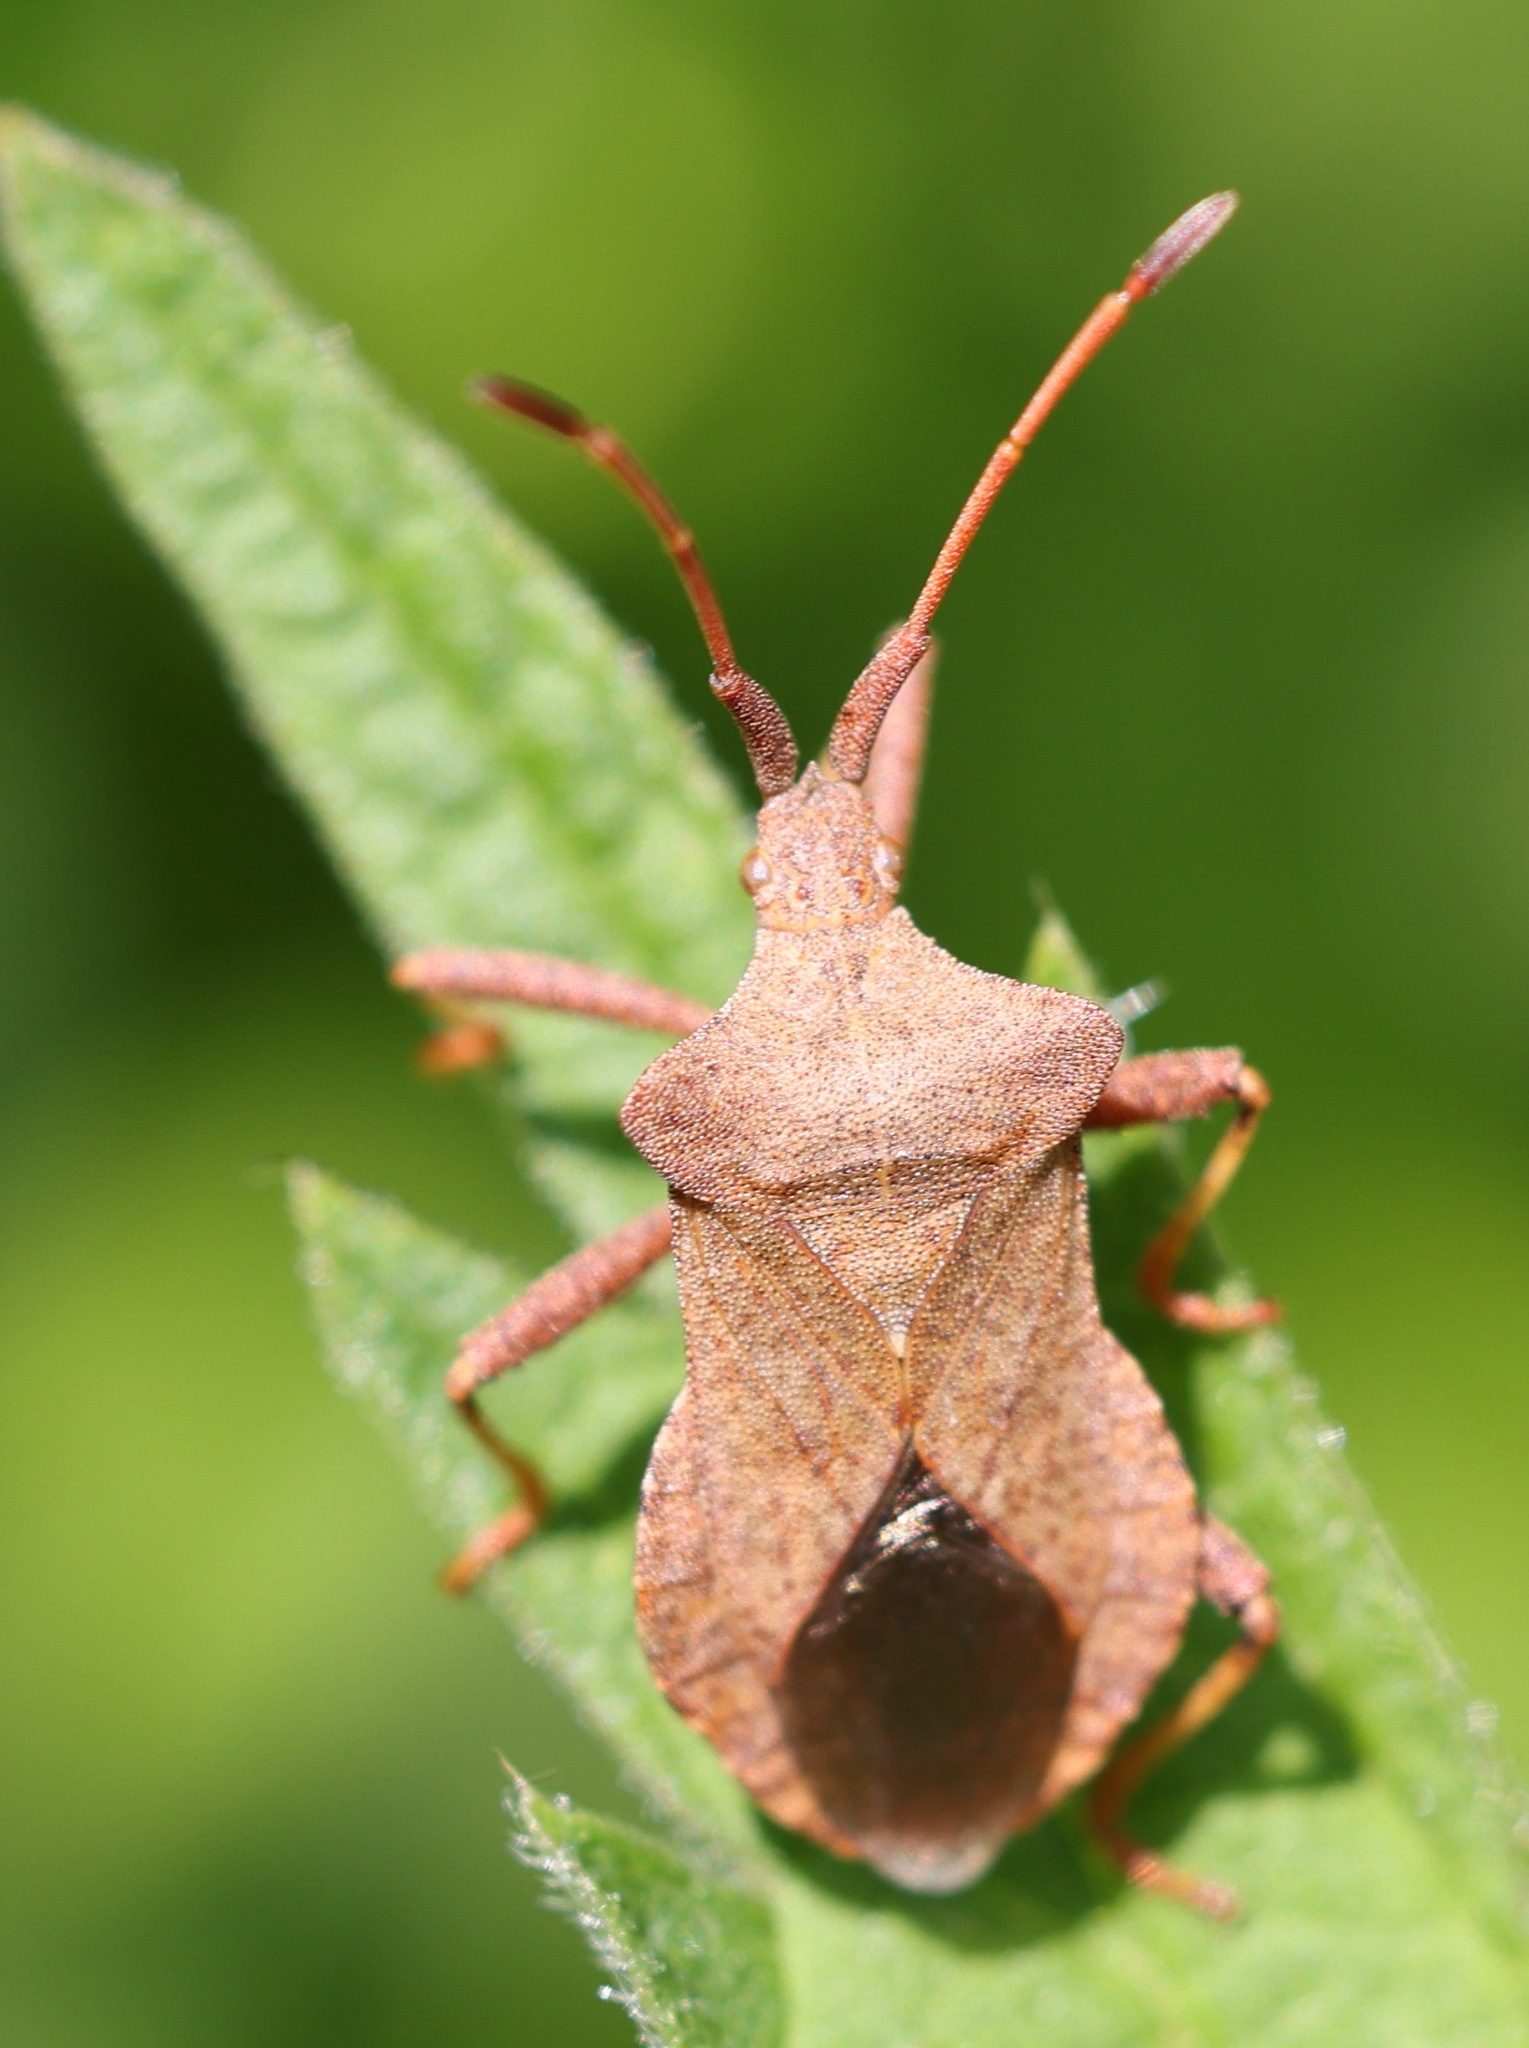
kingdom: Animalia
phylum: Arthropoda
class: Insecta
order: Hemiptera
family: Coreidae
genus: Coreus
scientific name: Coreus marginatus
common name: Dock bug
